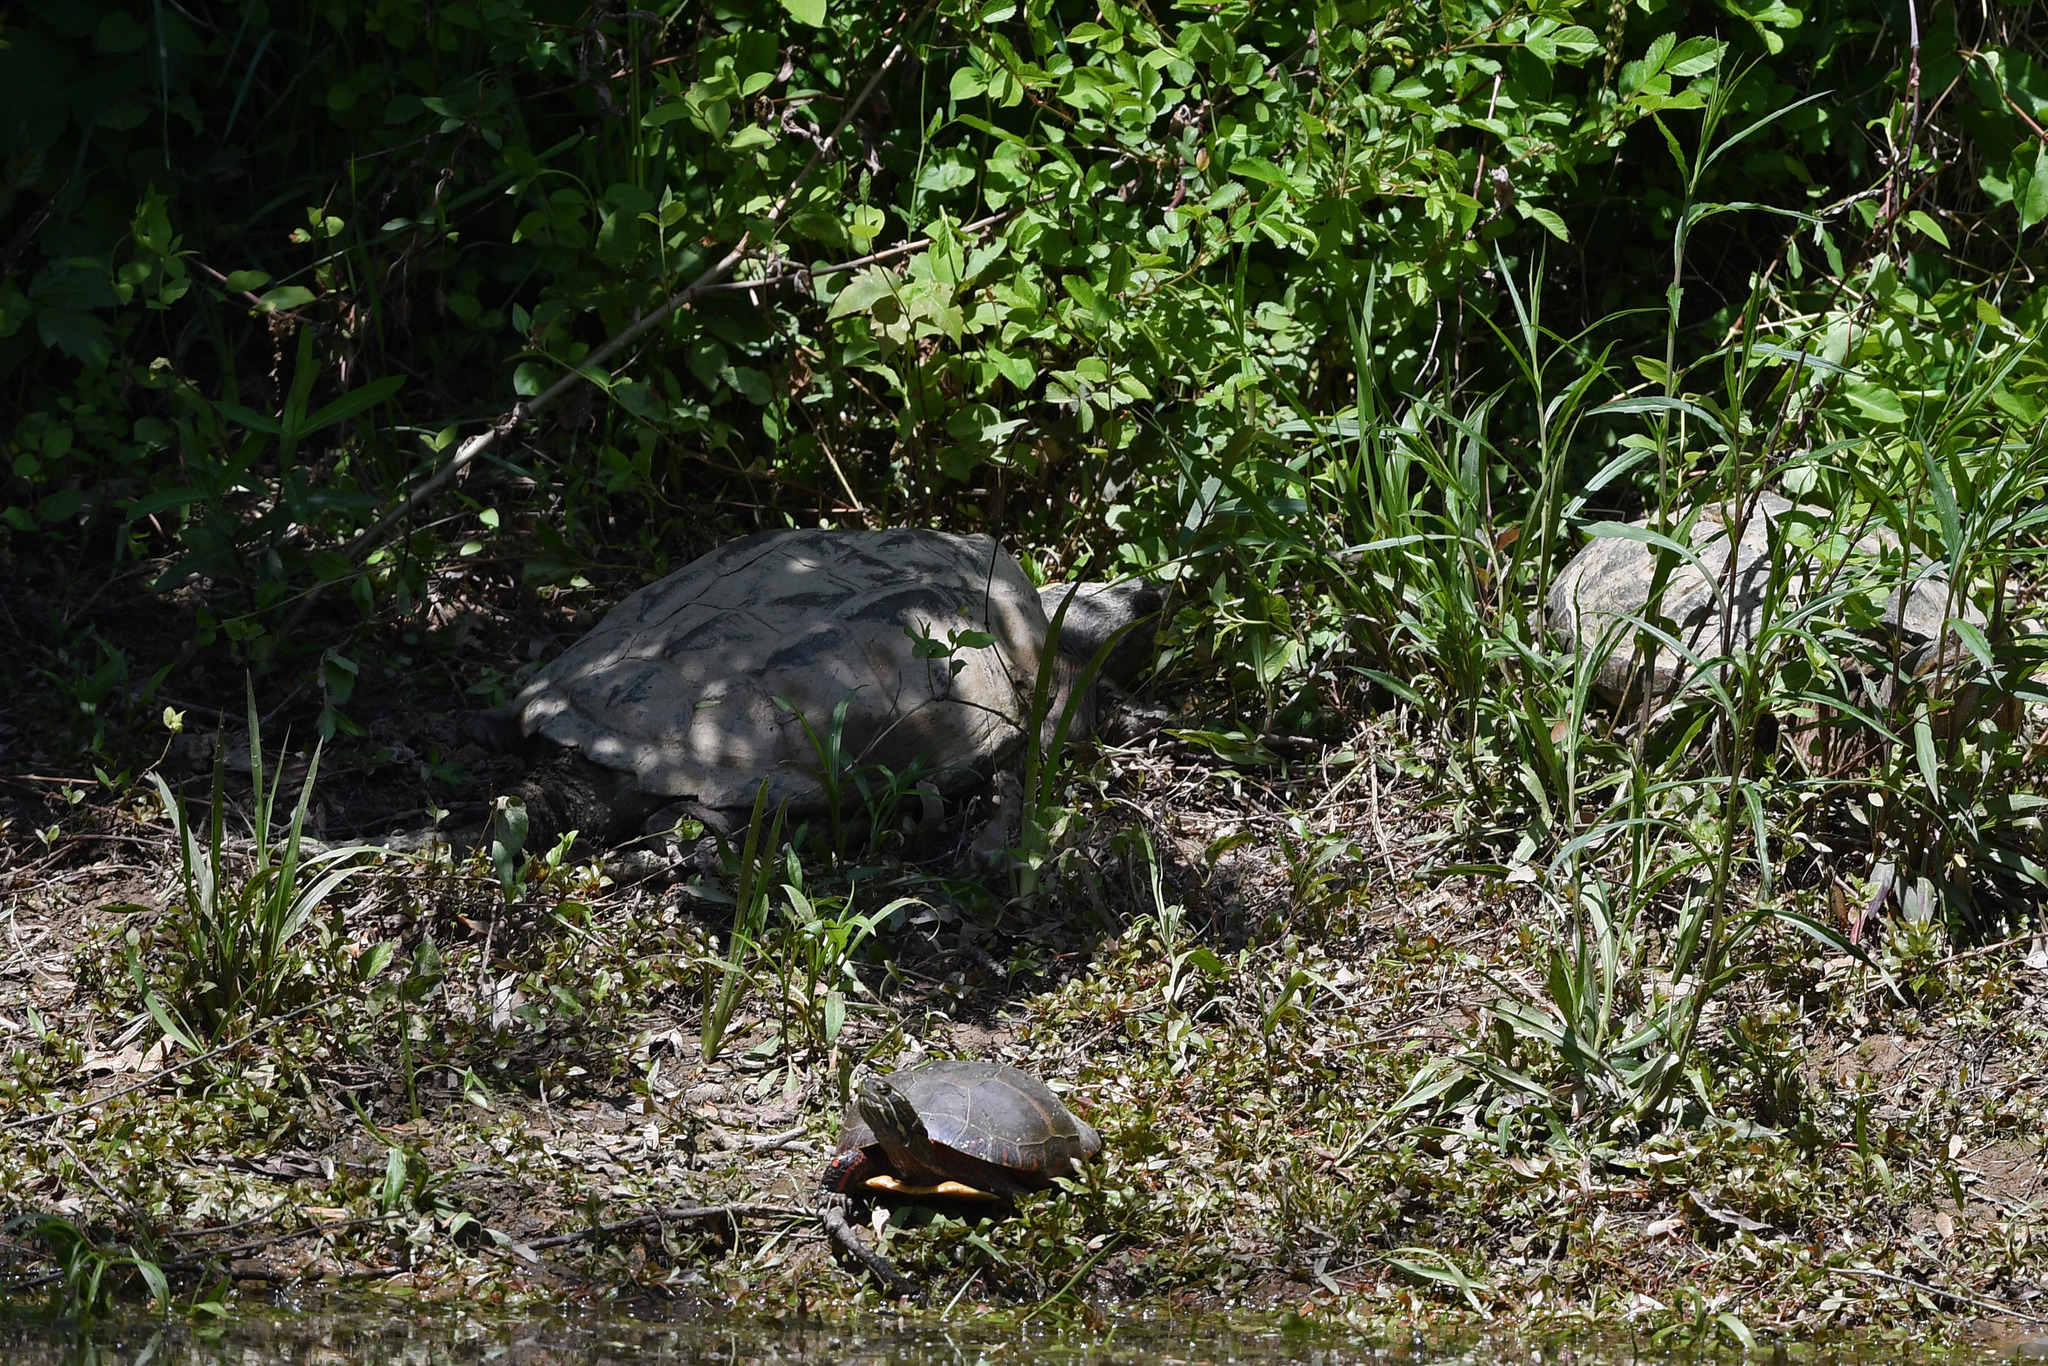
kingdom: Animalia
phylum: Chordata
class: Testudines
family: Chelydridae
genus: Chelydra
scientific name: Chelydra serpentina
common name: Common snapping turtle
